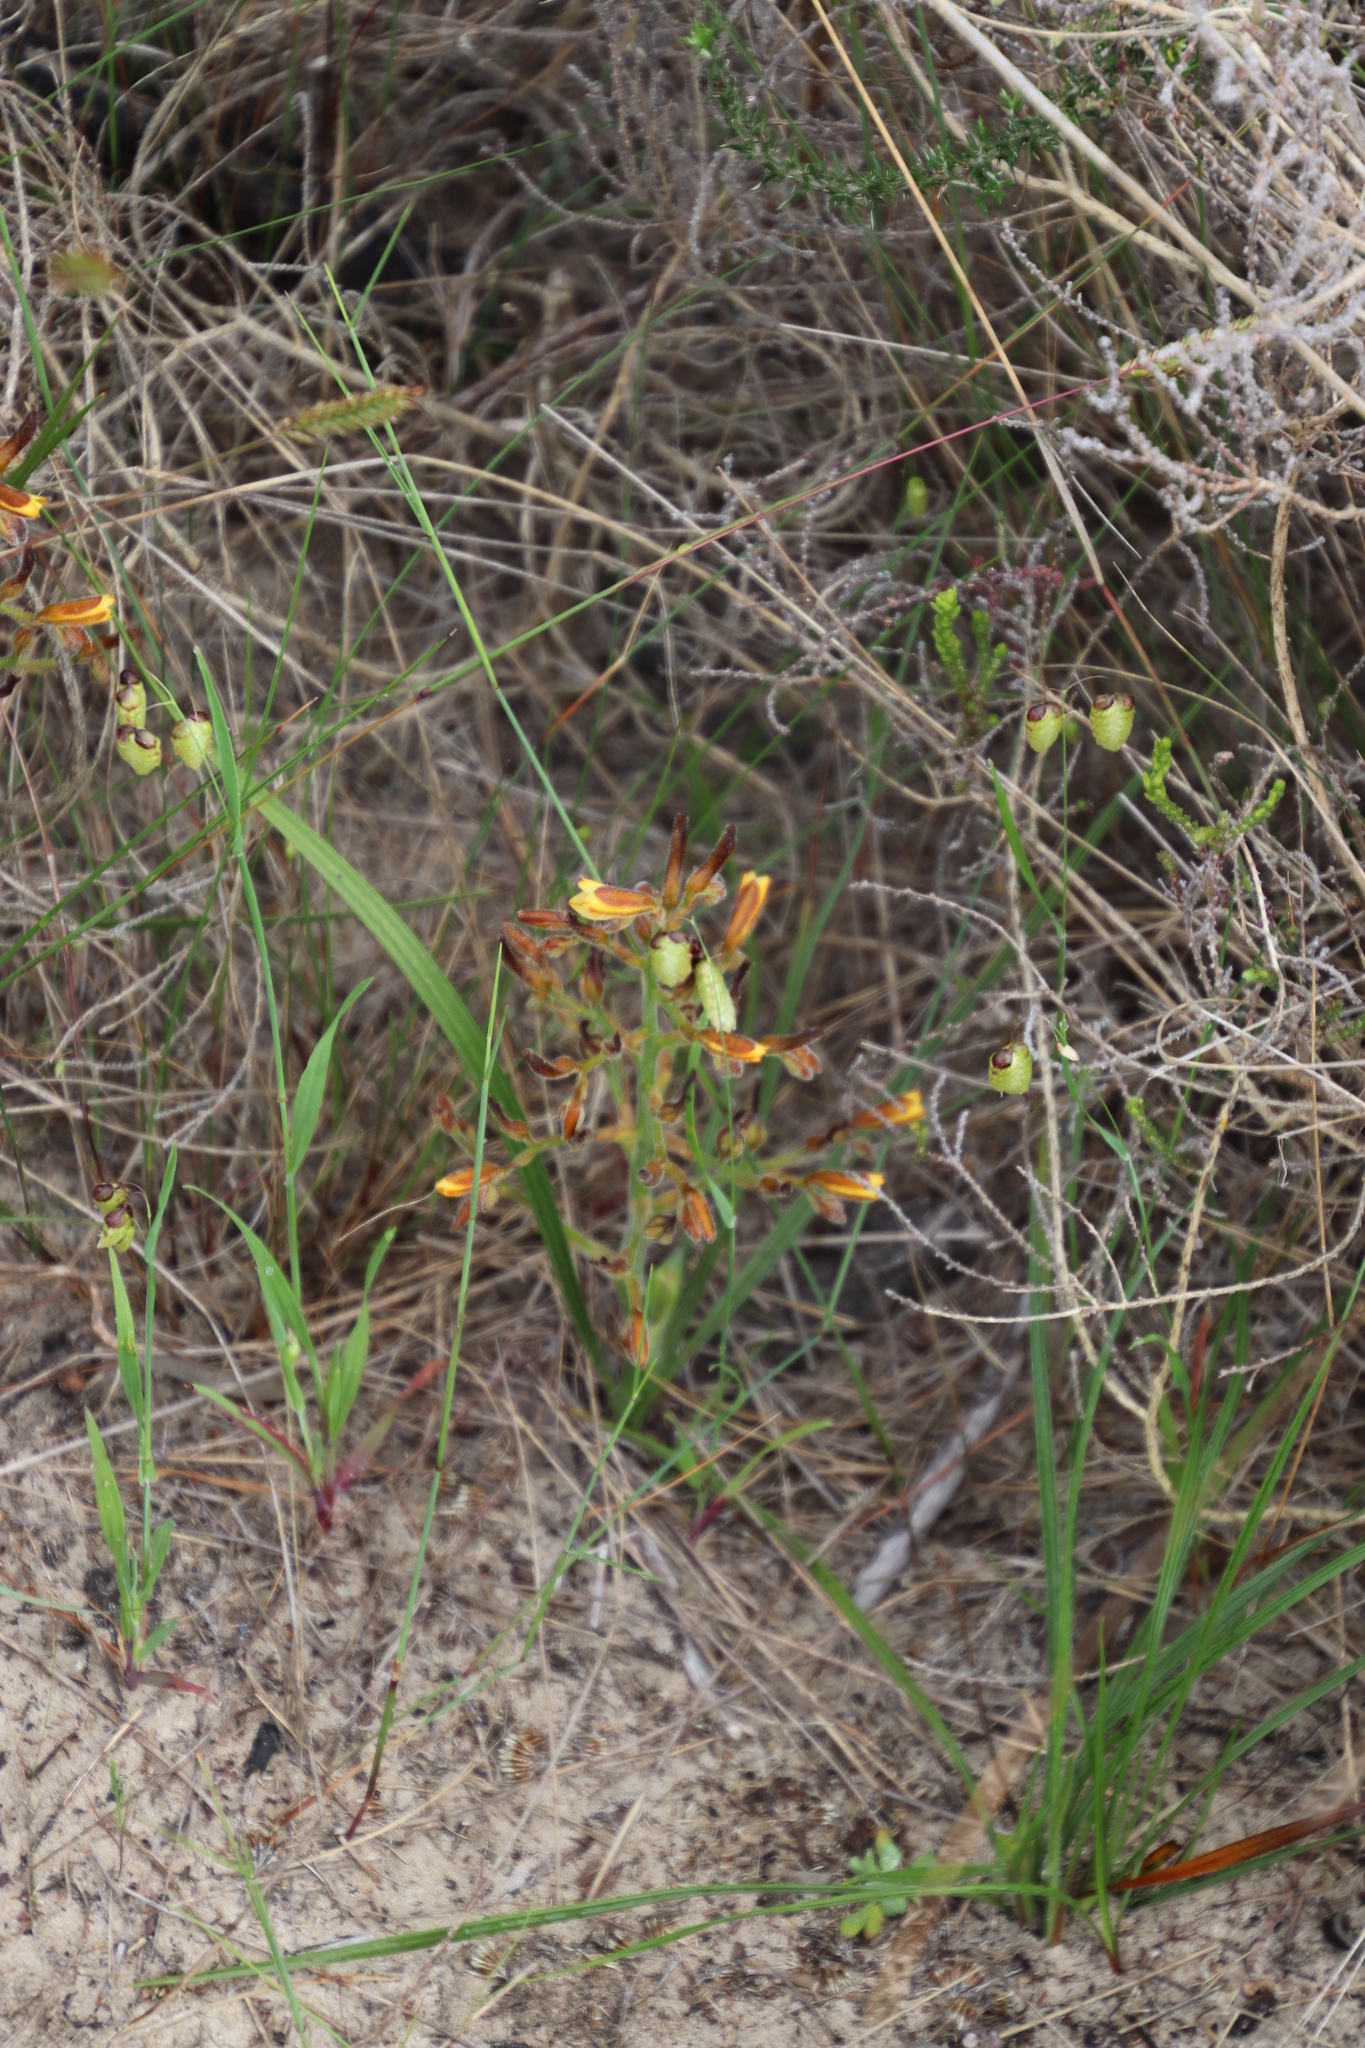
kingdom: Plantae
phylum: Tracheophyta
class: Liliopsida
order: Commelinales
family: Haemodoraceae
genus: Wachendorfia
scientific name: Wachendorfia paniculata
